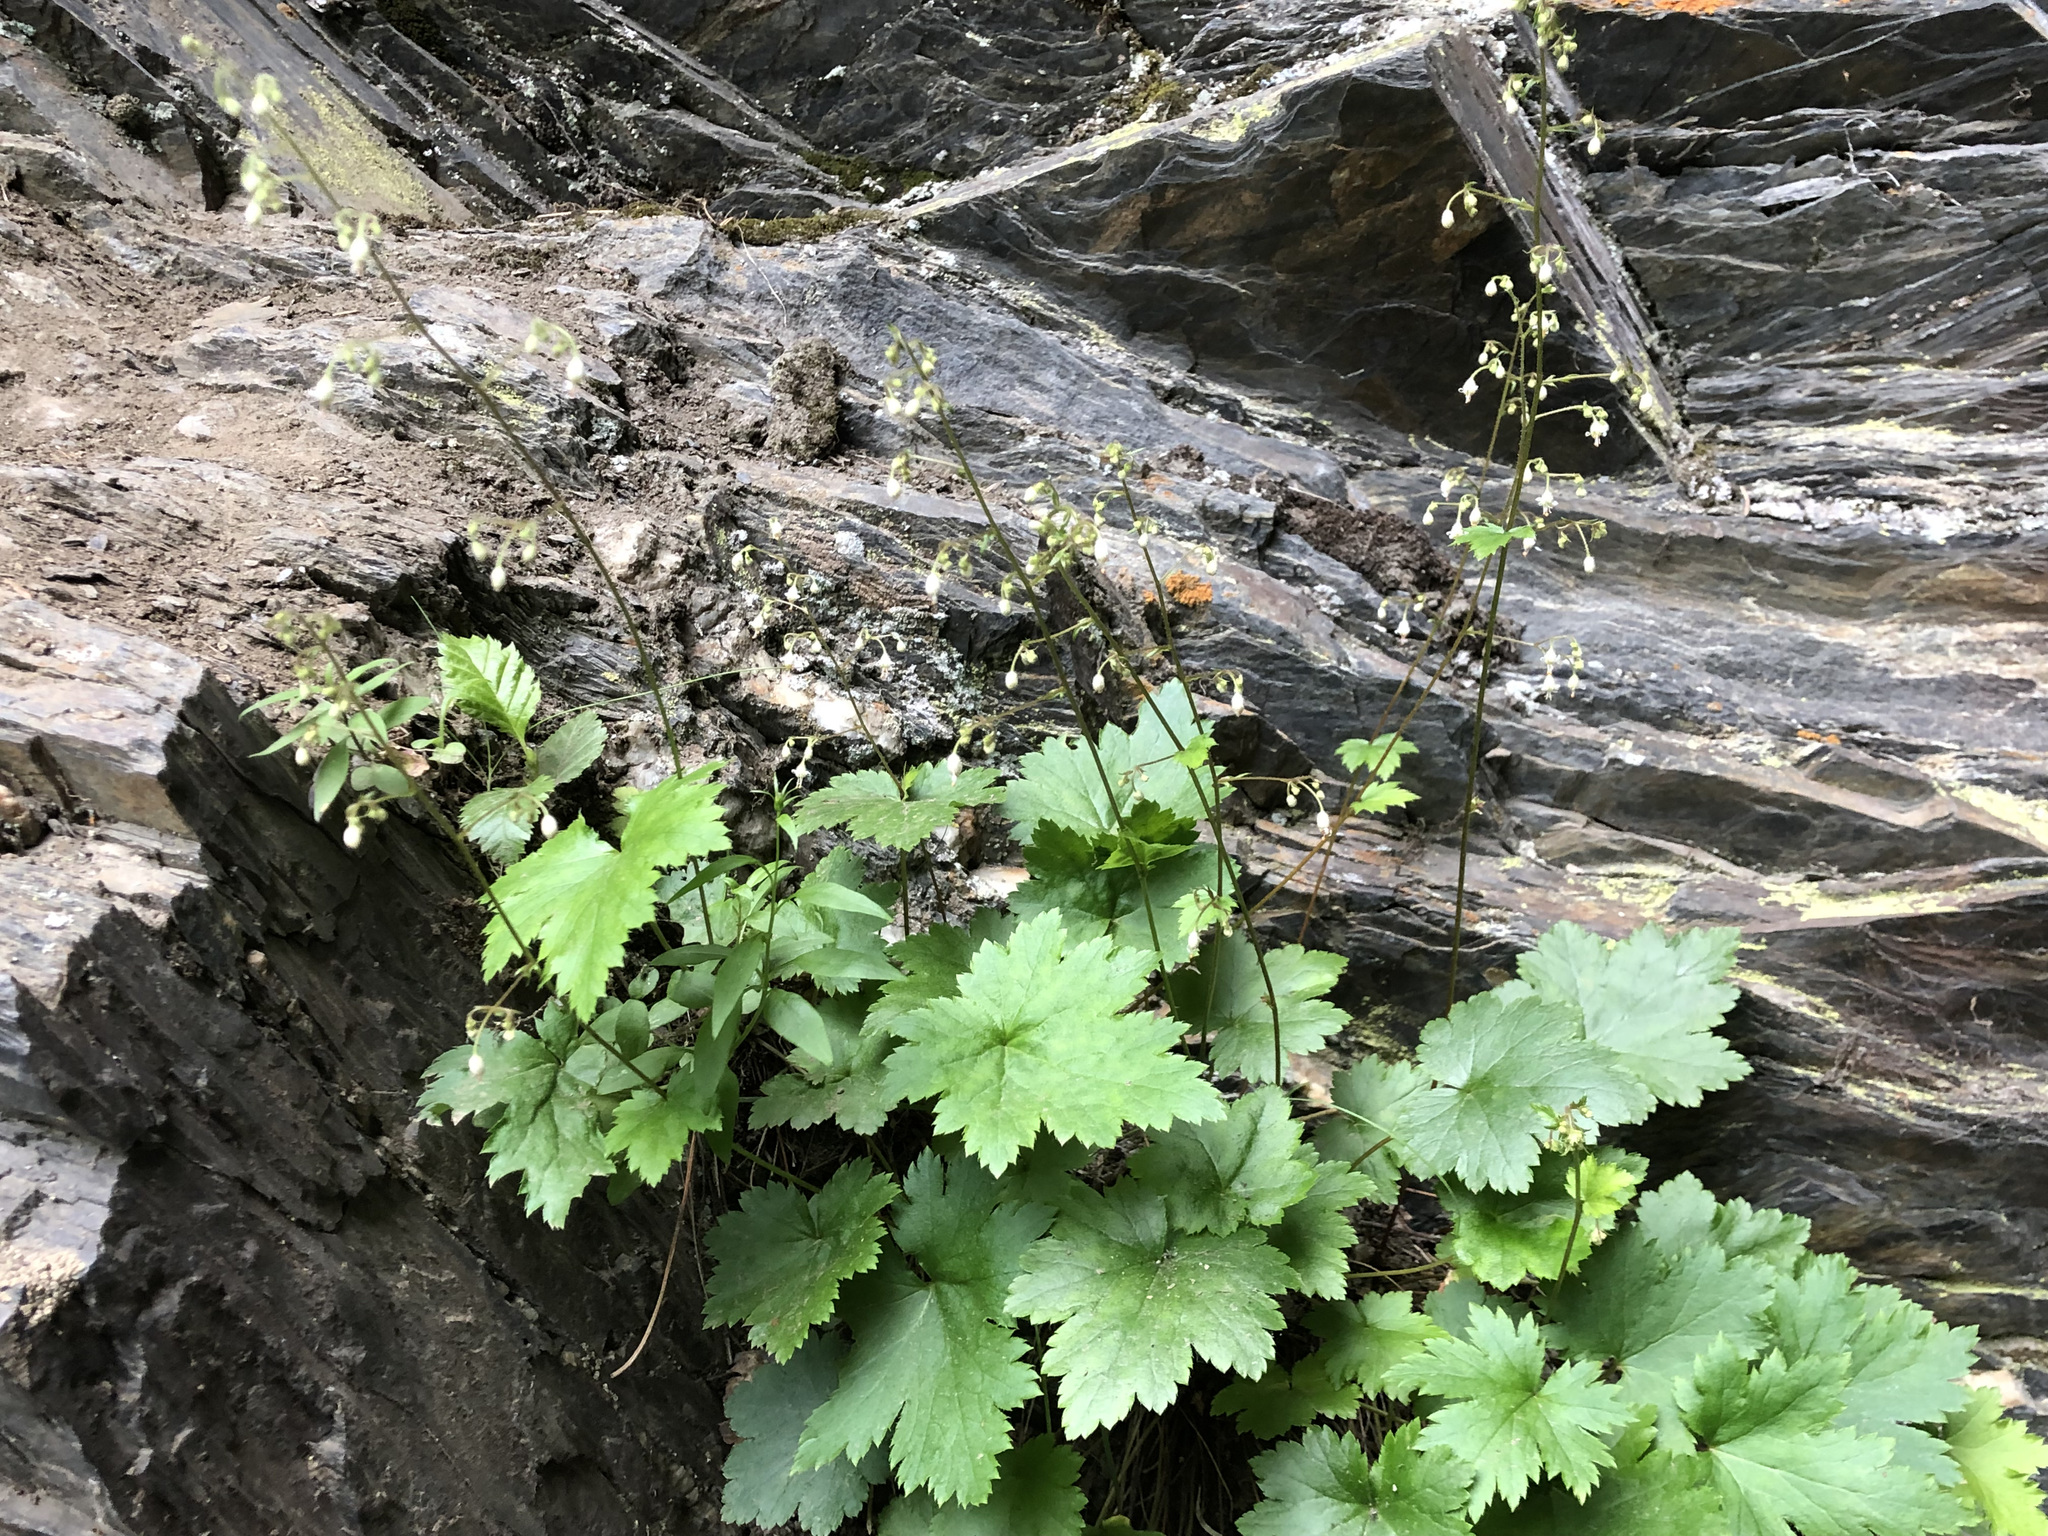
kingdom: Plantae
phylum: Tracheophyta
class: Magnoliopsida
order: Saxifragales
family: Saxifragaceae
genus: Heuchera
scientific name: Heuchera glabra
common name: Alpine alumroot
